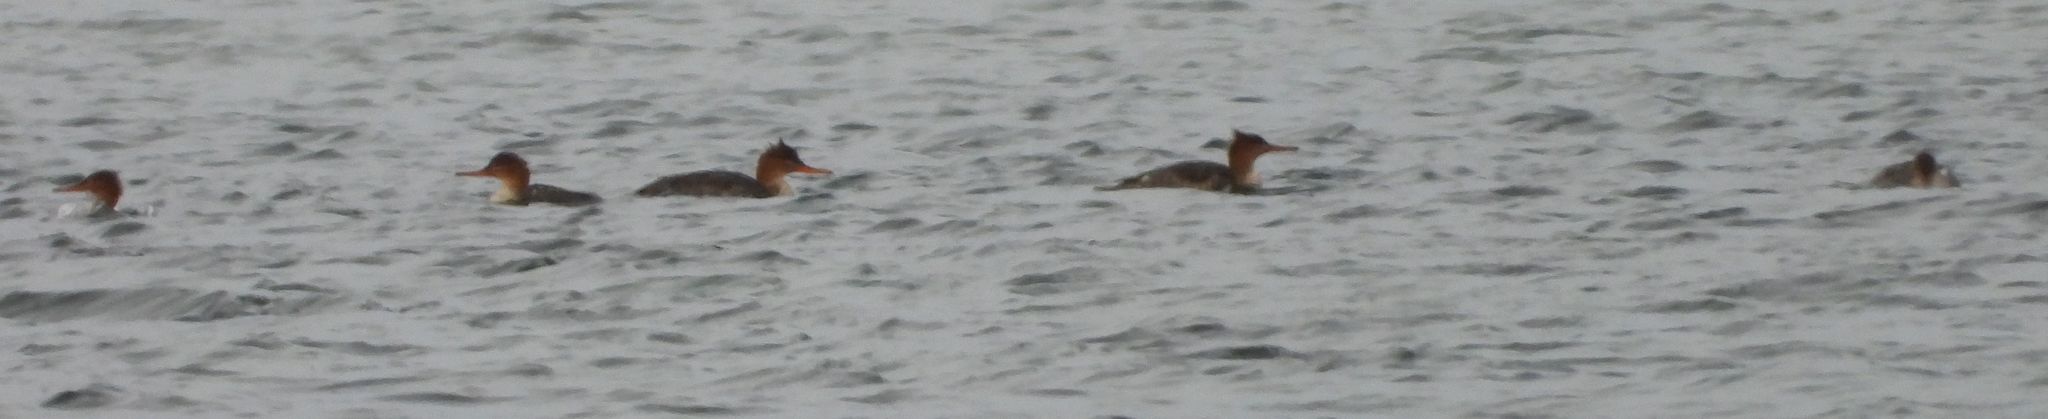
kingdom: Animalia
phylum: Chordata
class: Aves
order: Anseriformes
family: Anatidae
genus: Mergus
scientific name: Mergus serrator
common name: Red-breasted merganser
